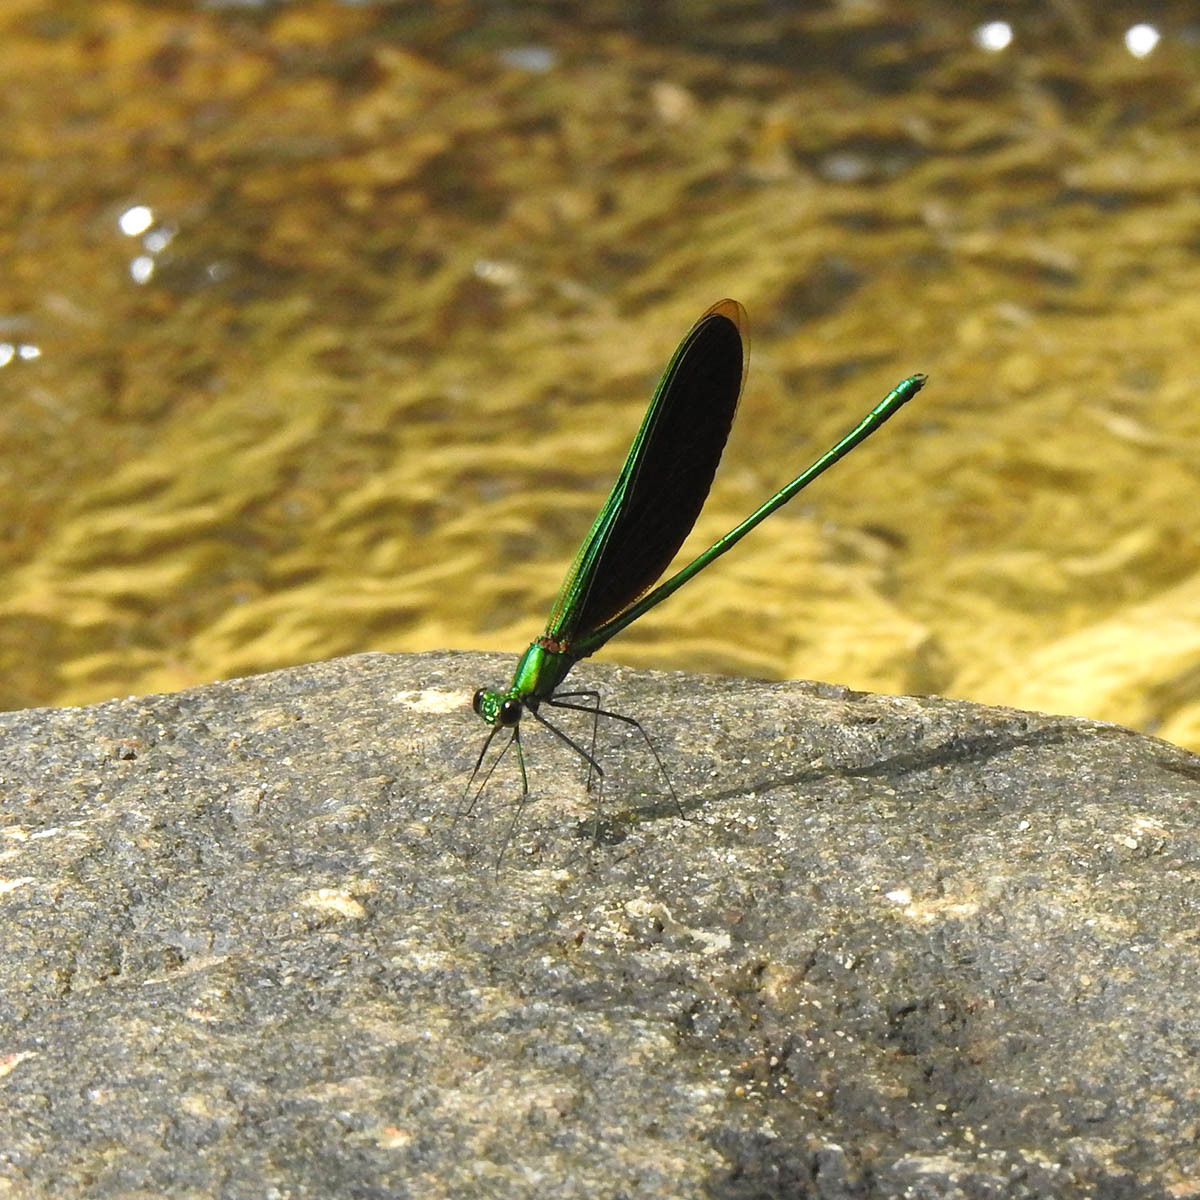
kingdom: Animalia
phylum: Arthropoda
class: Insecta
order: Odonata
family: Calopterygidae
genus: Neurobasis
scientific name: Neurobasis chinensis
